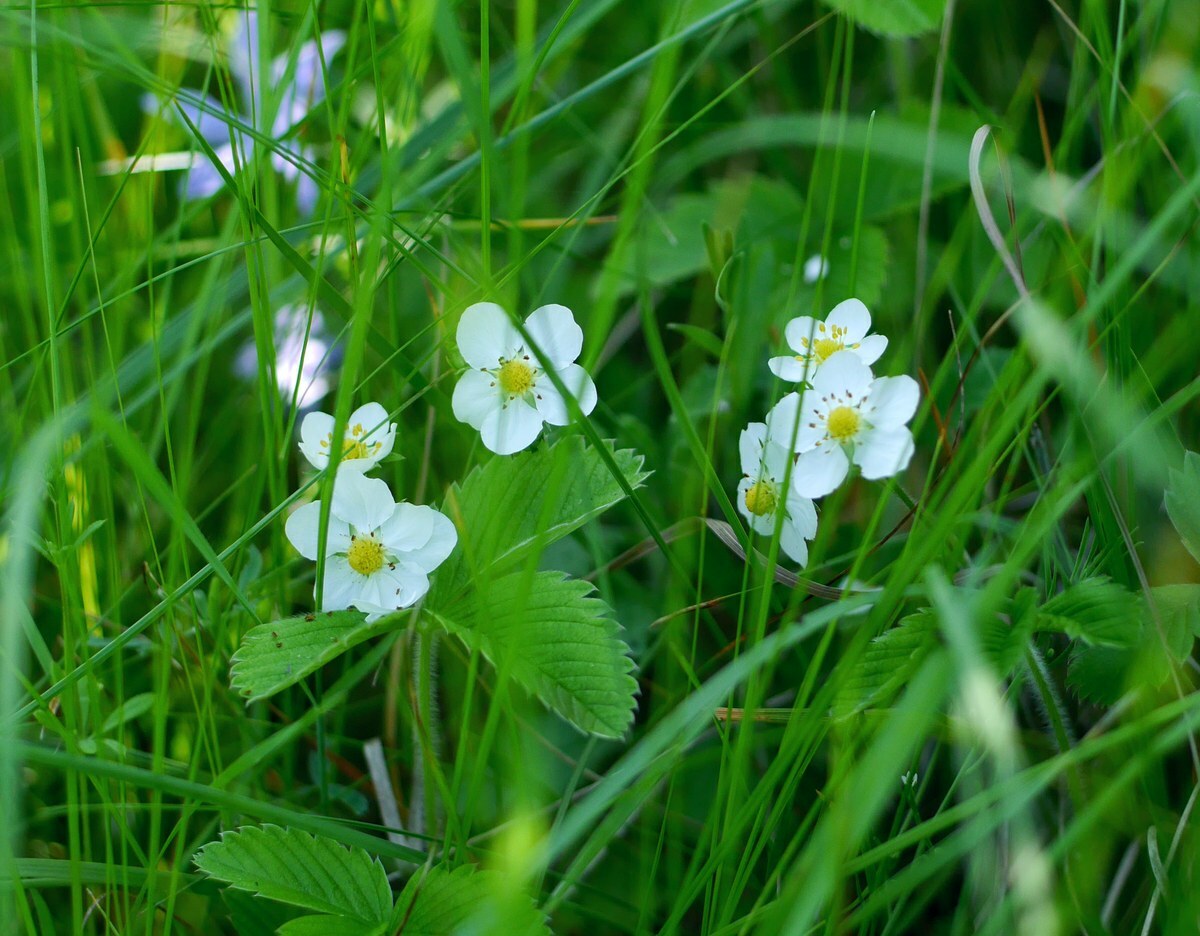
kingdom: Plantae
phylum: Tracheophyta
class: Magnoliopsida
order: Rosales
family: Rosaceae
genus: Fragaria
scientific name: Fragaria viridis
